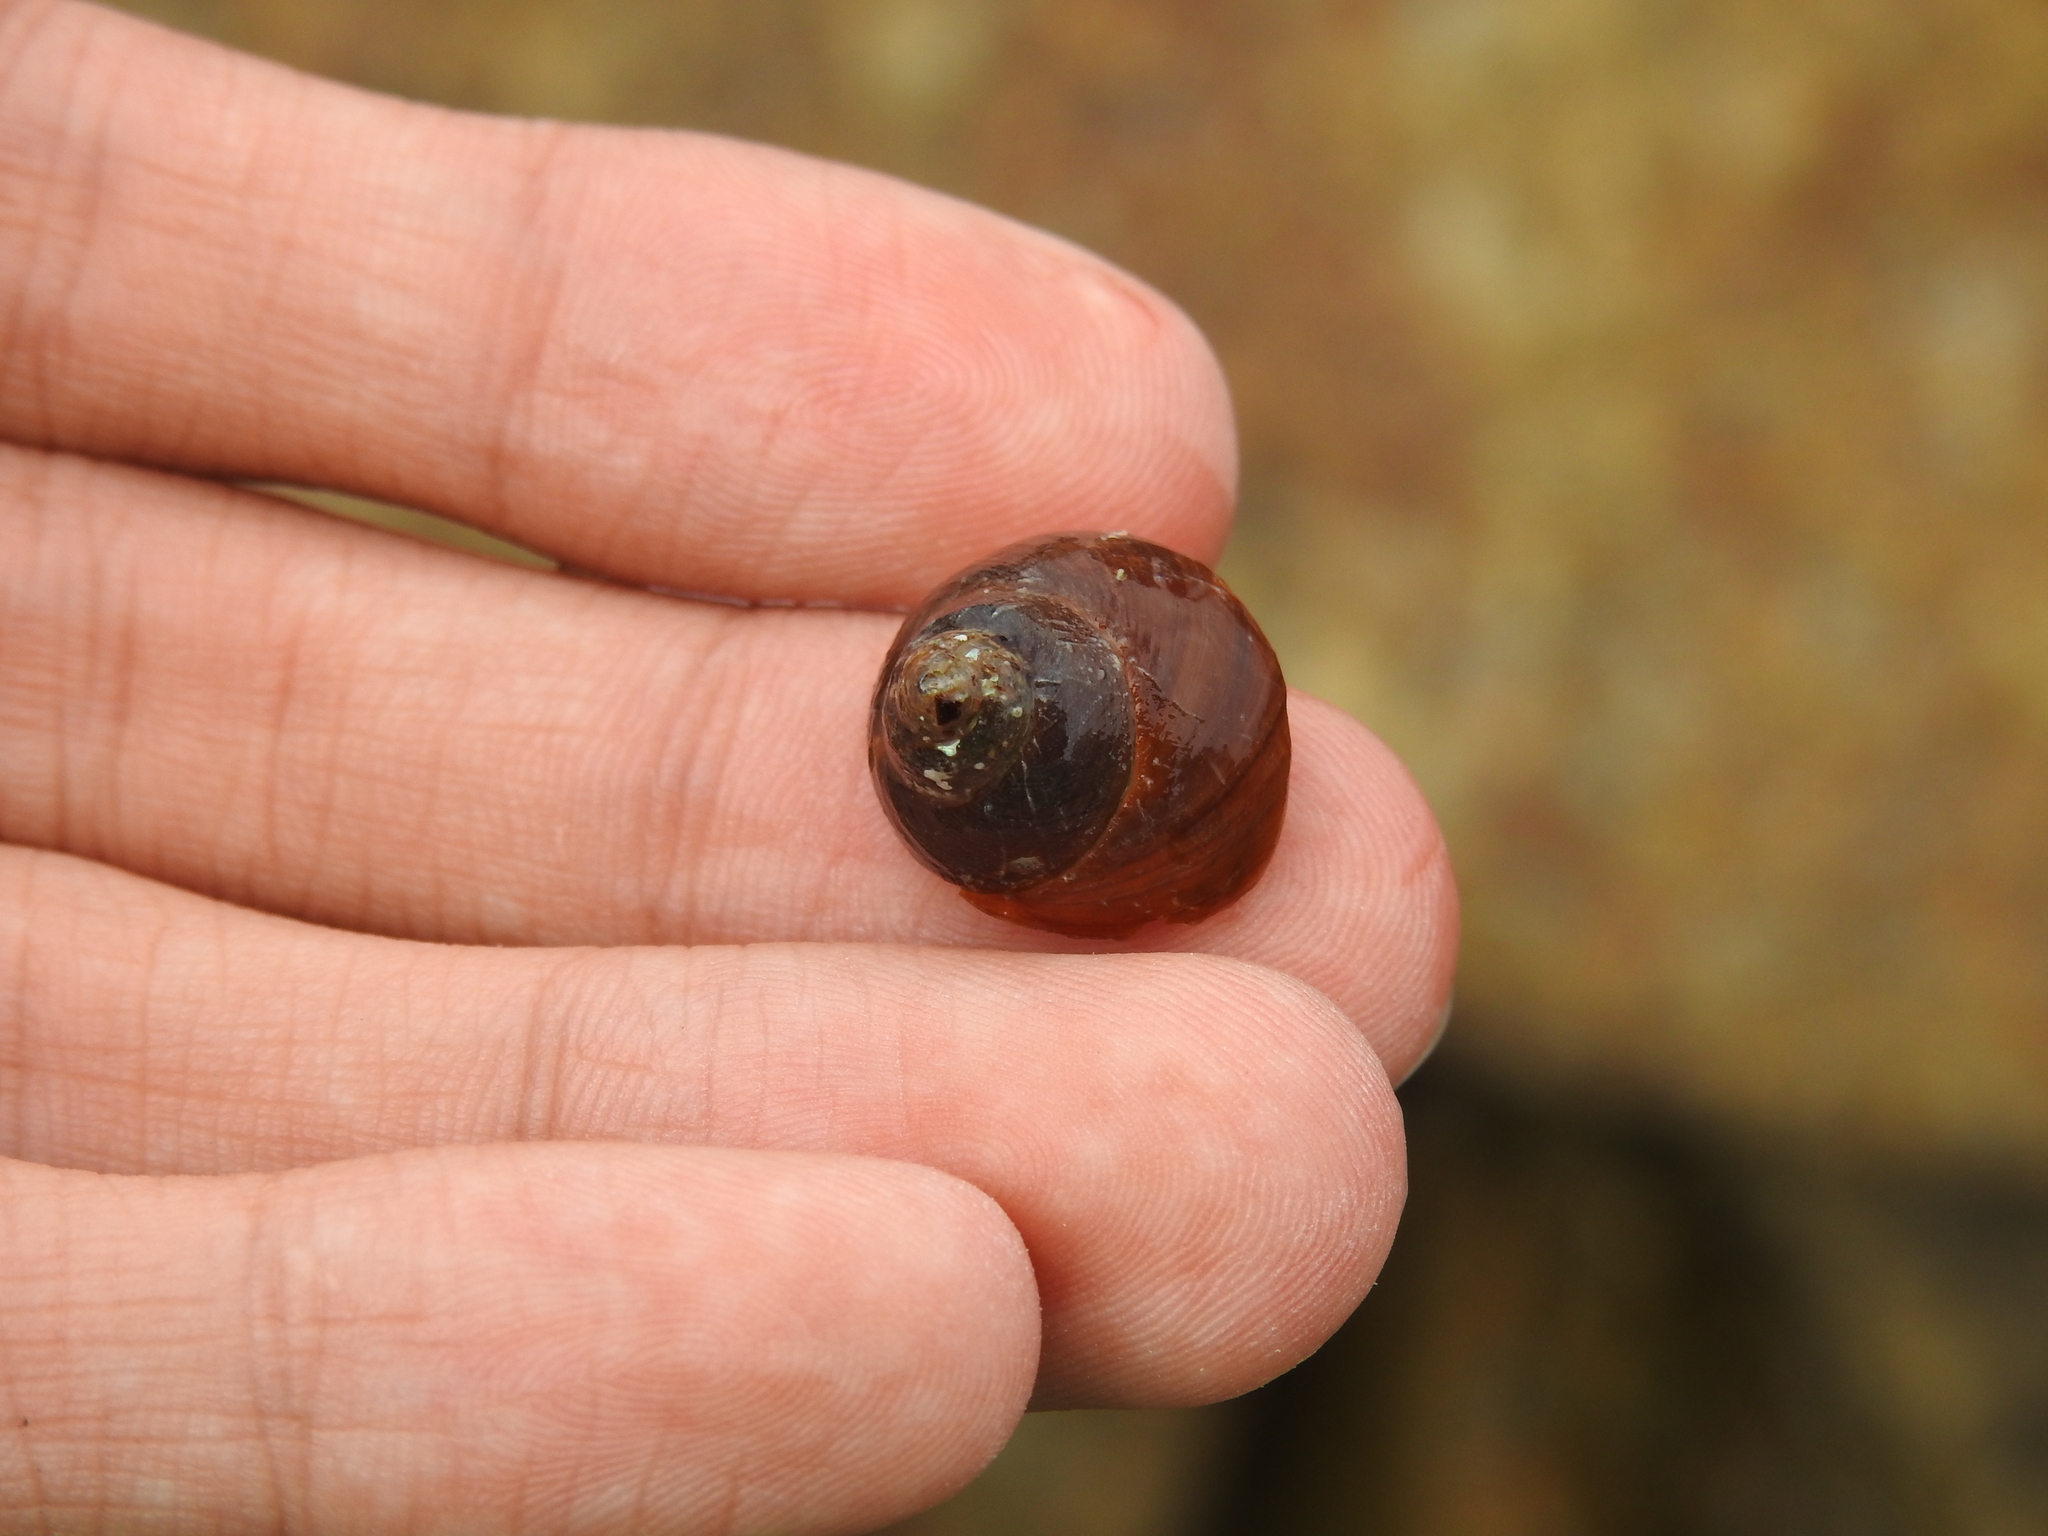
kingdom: Animalia
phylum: Mollusca
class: Gastropoda
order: Trochida
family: Tegulidae
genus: Tegula
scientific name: Tegula brunnea
